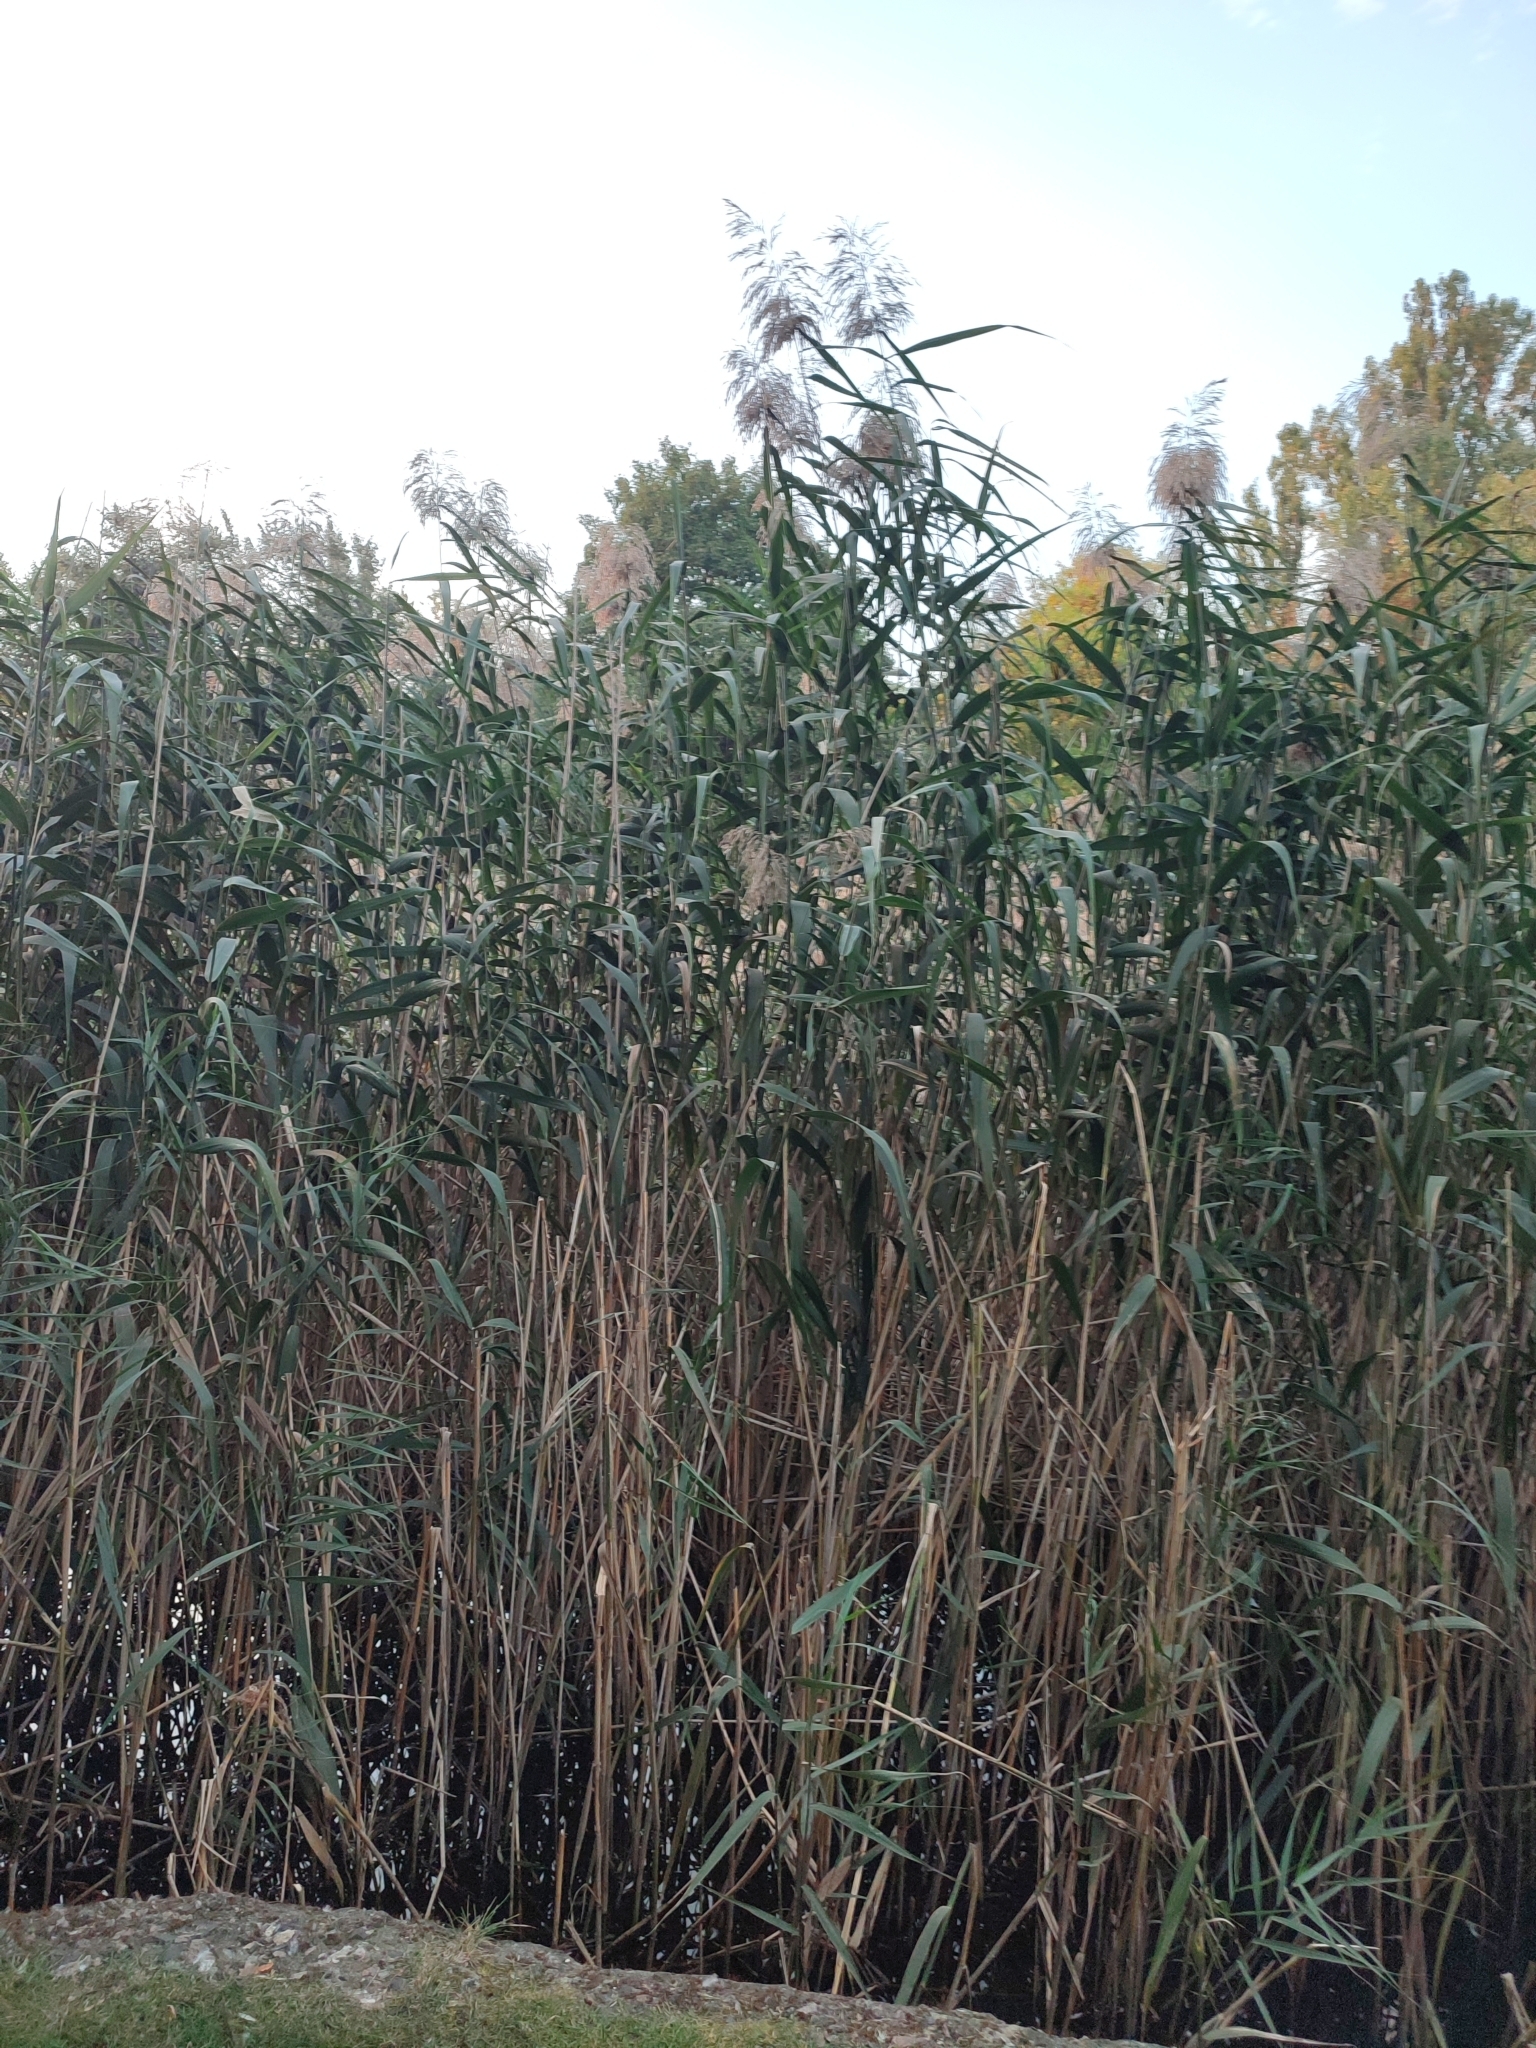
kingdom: Plantae
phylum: Tracheophyta
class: Liliopsida
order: Poales
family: Poaceae
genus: Phragmites
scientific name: Phragmites australis
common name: Common reed
